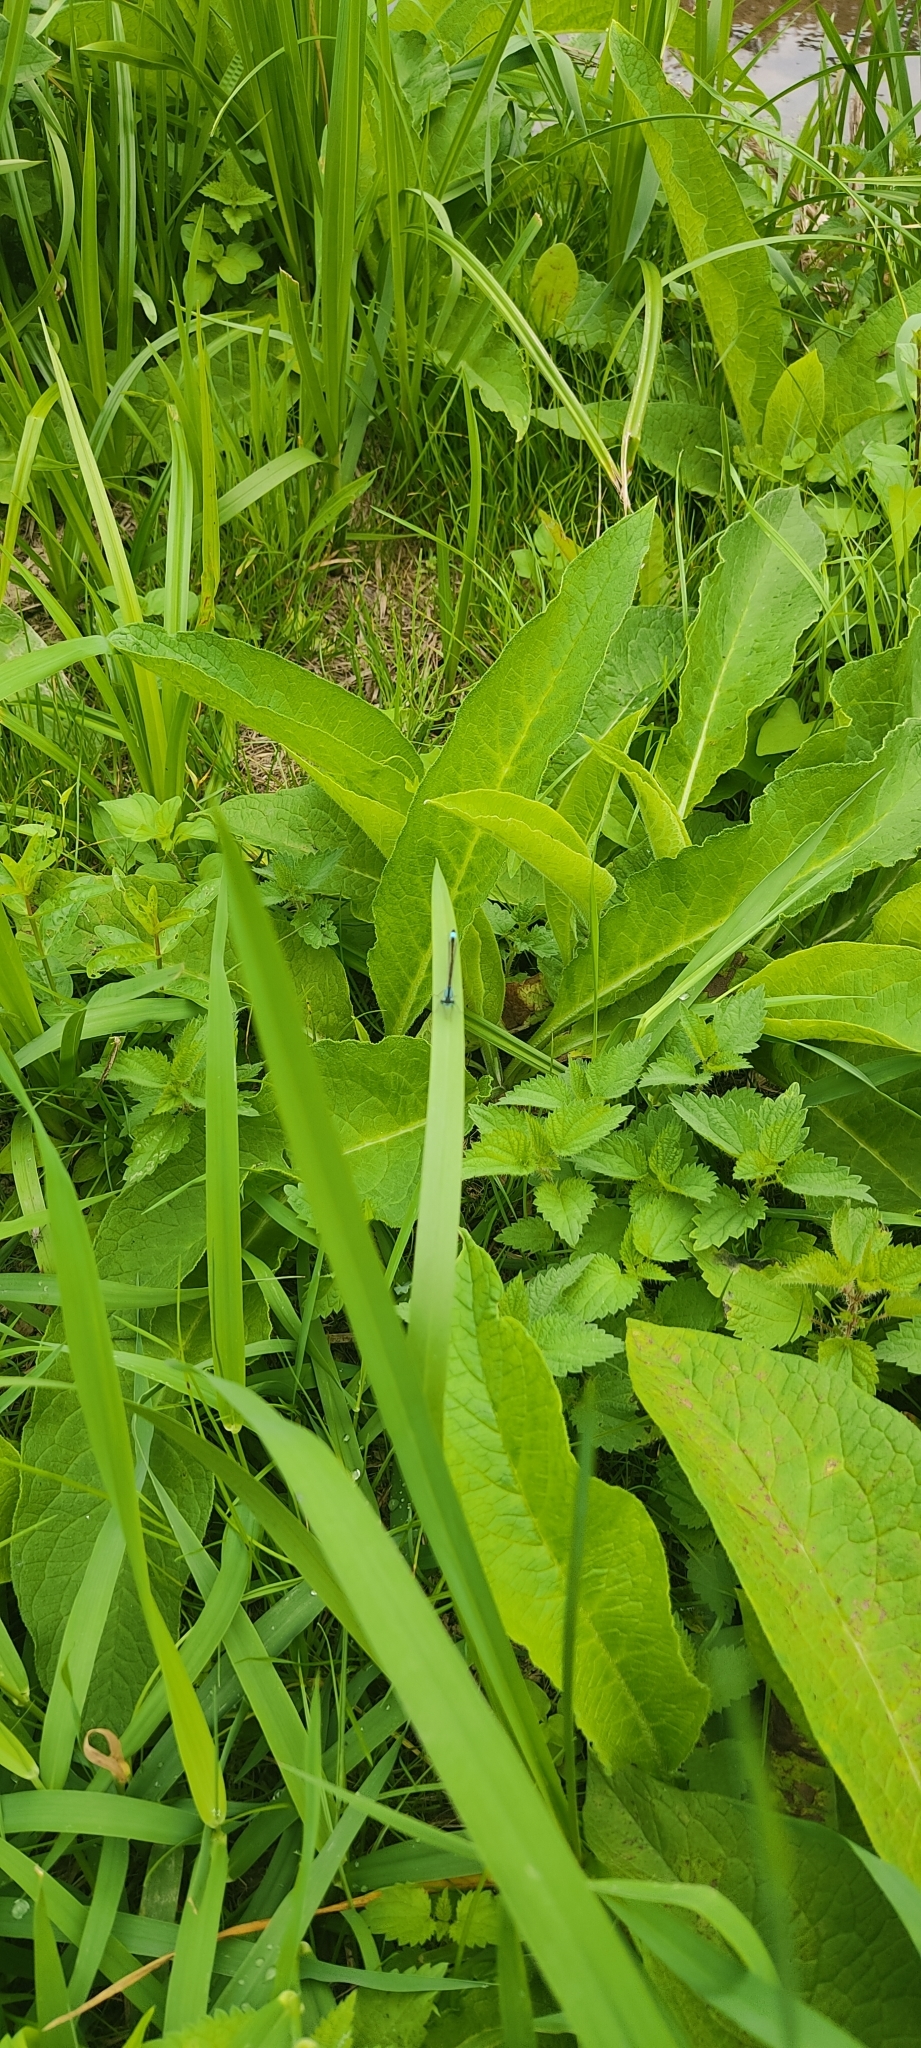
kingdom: Animalia
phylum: Arthropoda
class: Insecta
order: Odonata
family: Coenagrionidae
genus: Ischnura
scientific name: Ischnura elegans
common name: Blue-tailed damselfly
